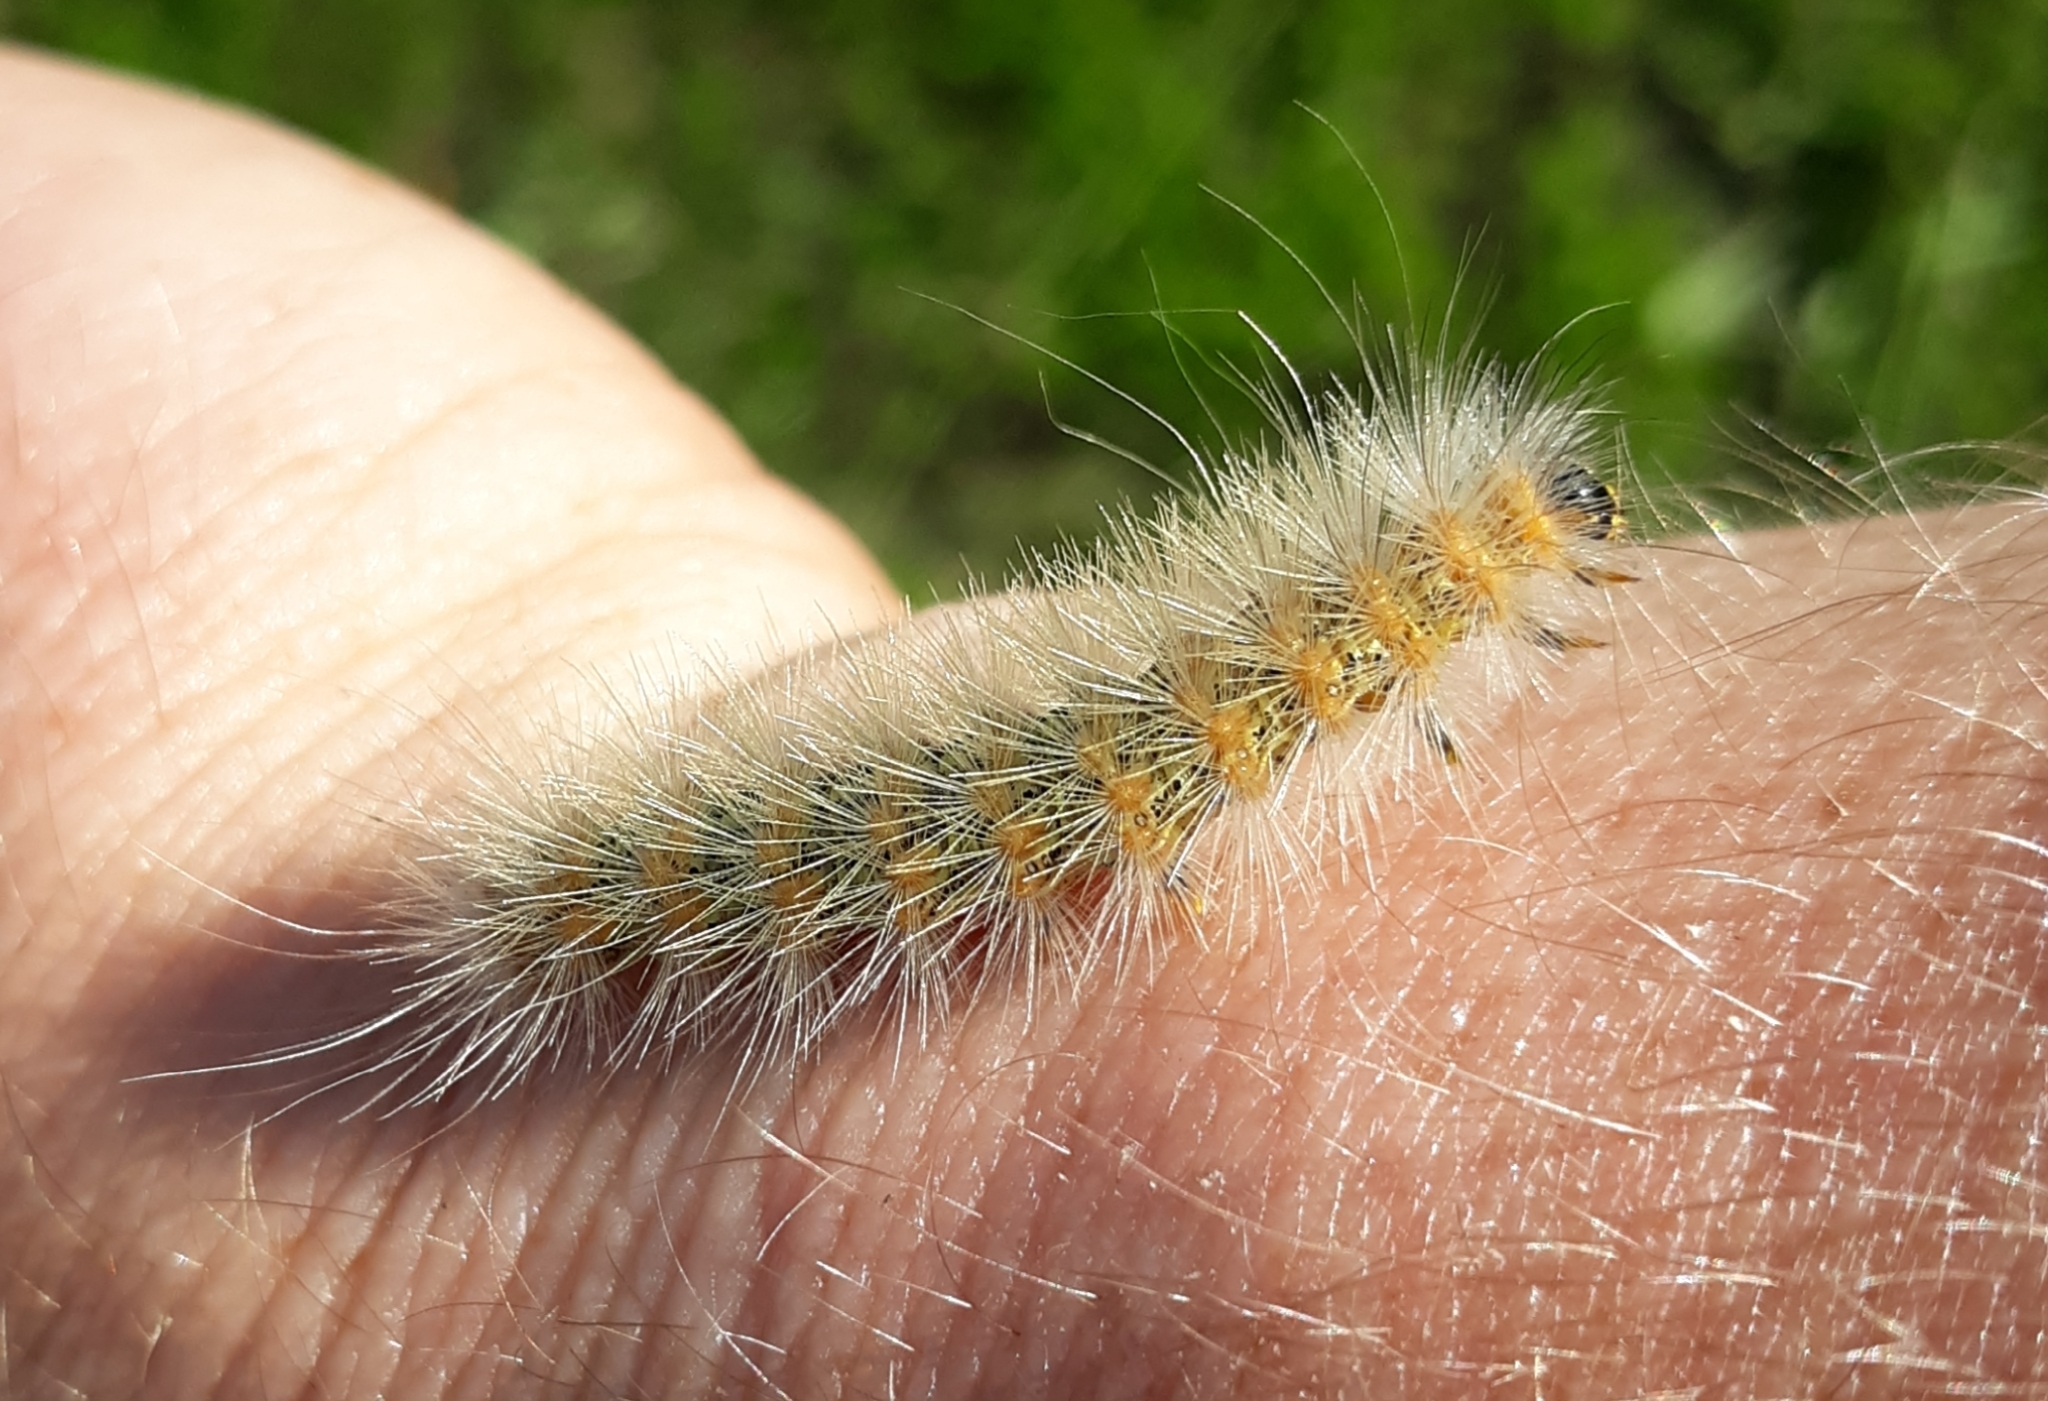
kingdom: Animalia
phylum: Arthropoda
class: Insecta
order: Lepidoptera
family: Erebidae
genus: Estigmene
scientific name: Estigmene acrea
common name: Salt marsh moth
